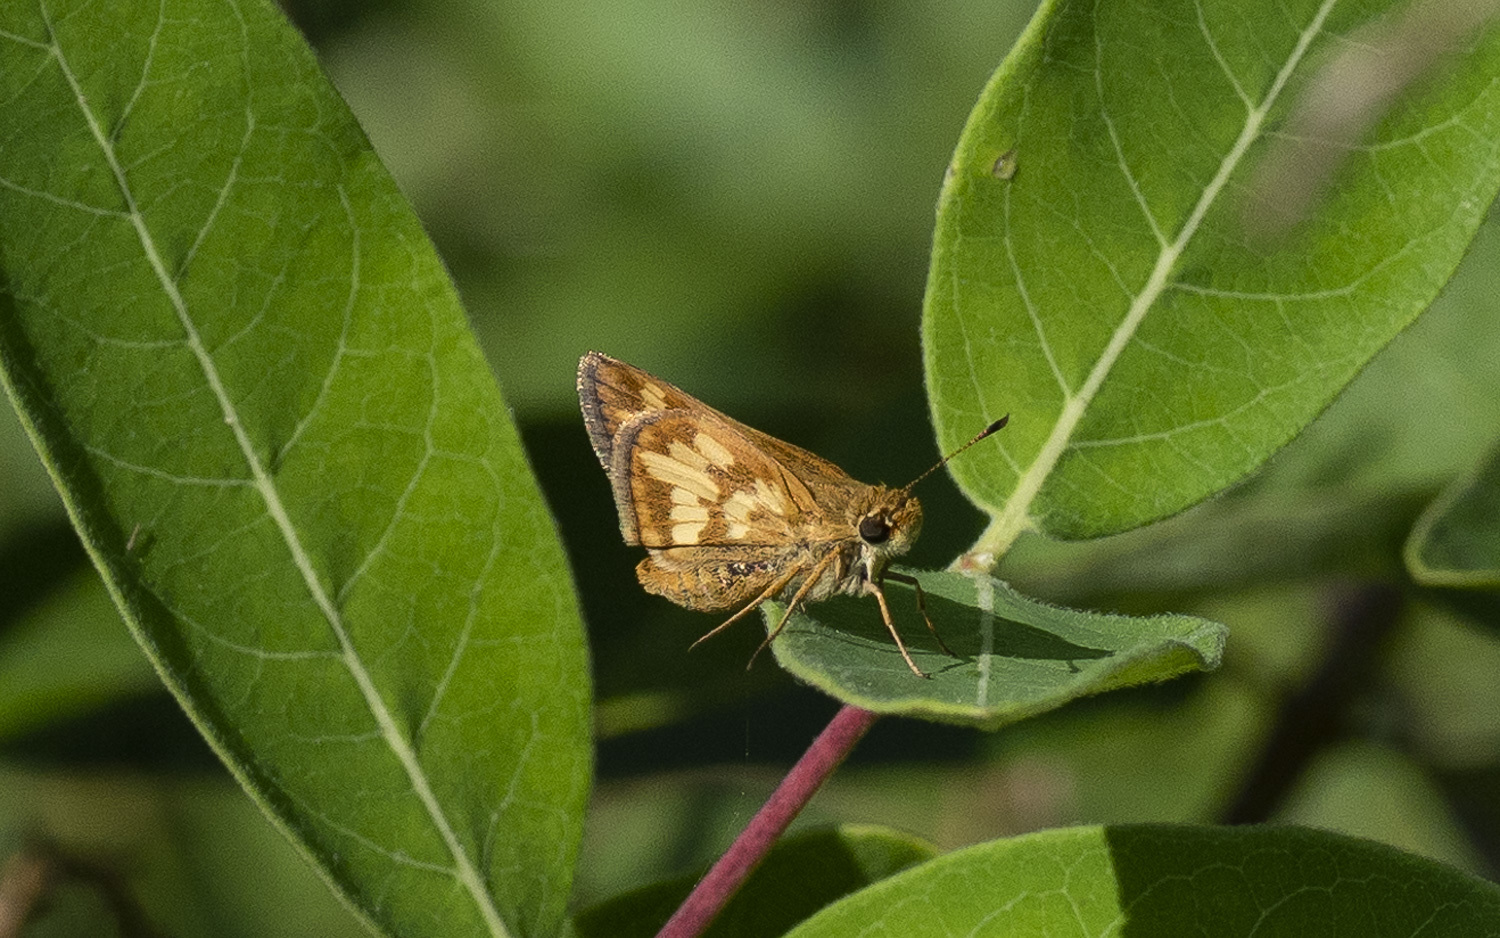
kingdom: Animalia
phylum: Arthropoda
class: Insecta
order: Lepidoptera
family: Hesperiidae
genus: Polites
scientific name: Polites coras
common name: Peck's skipper
